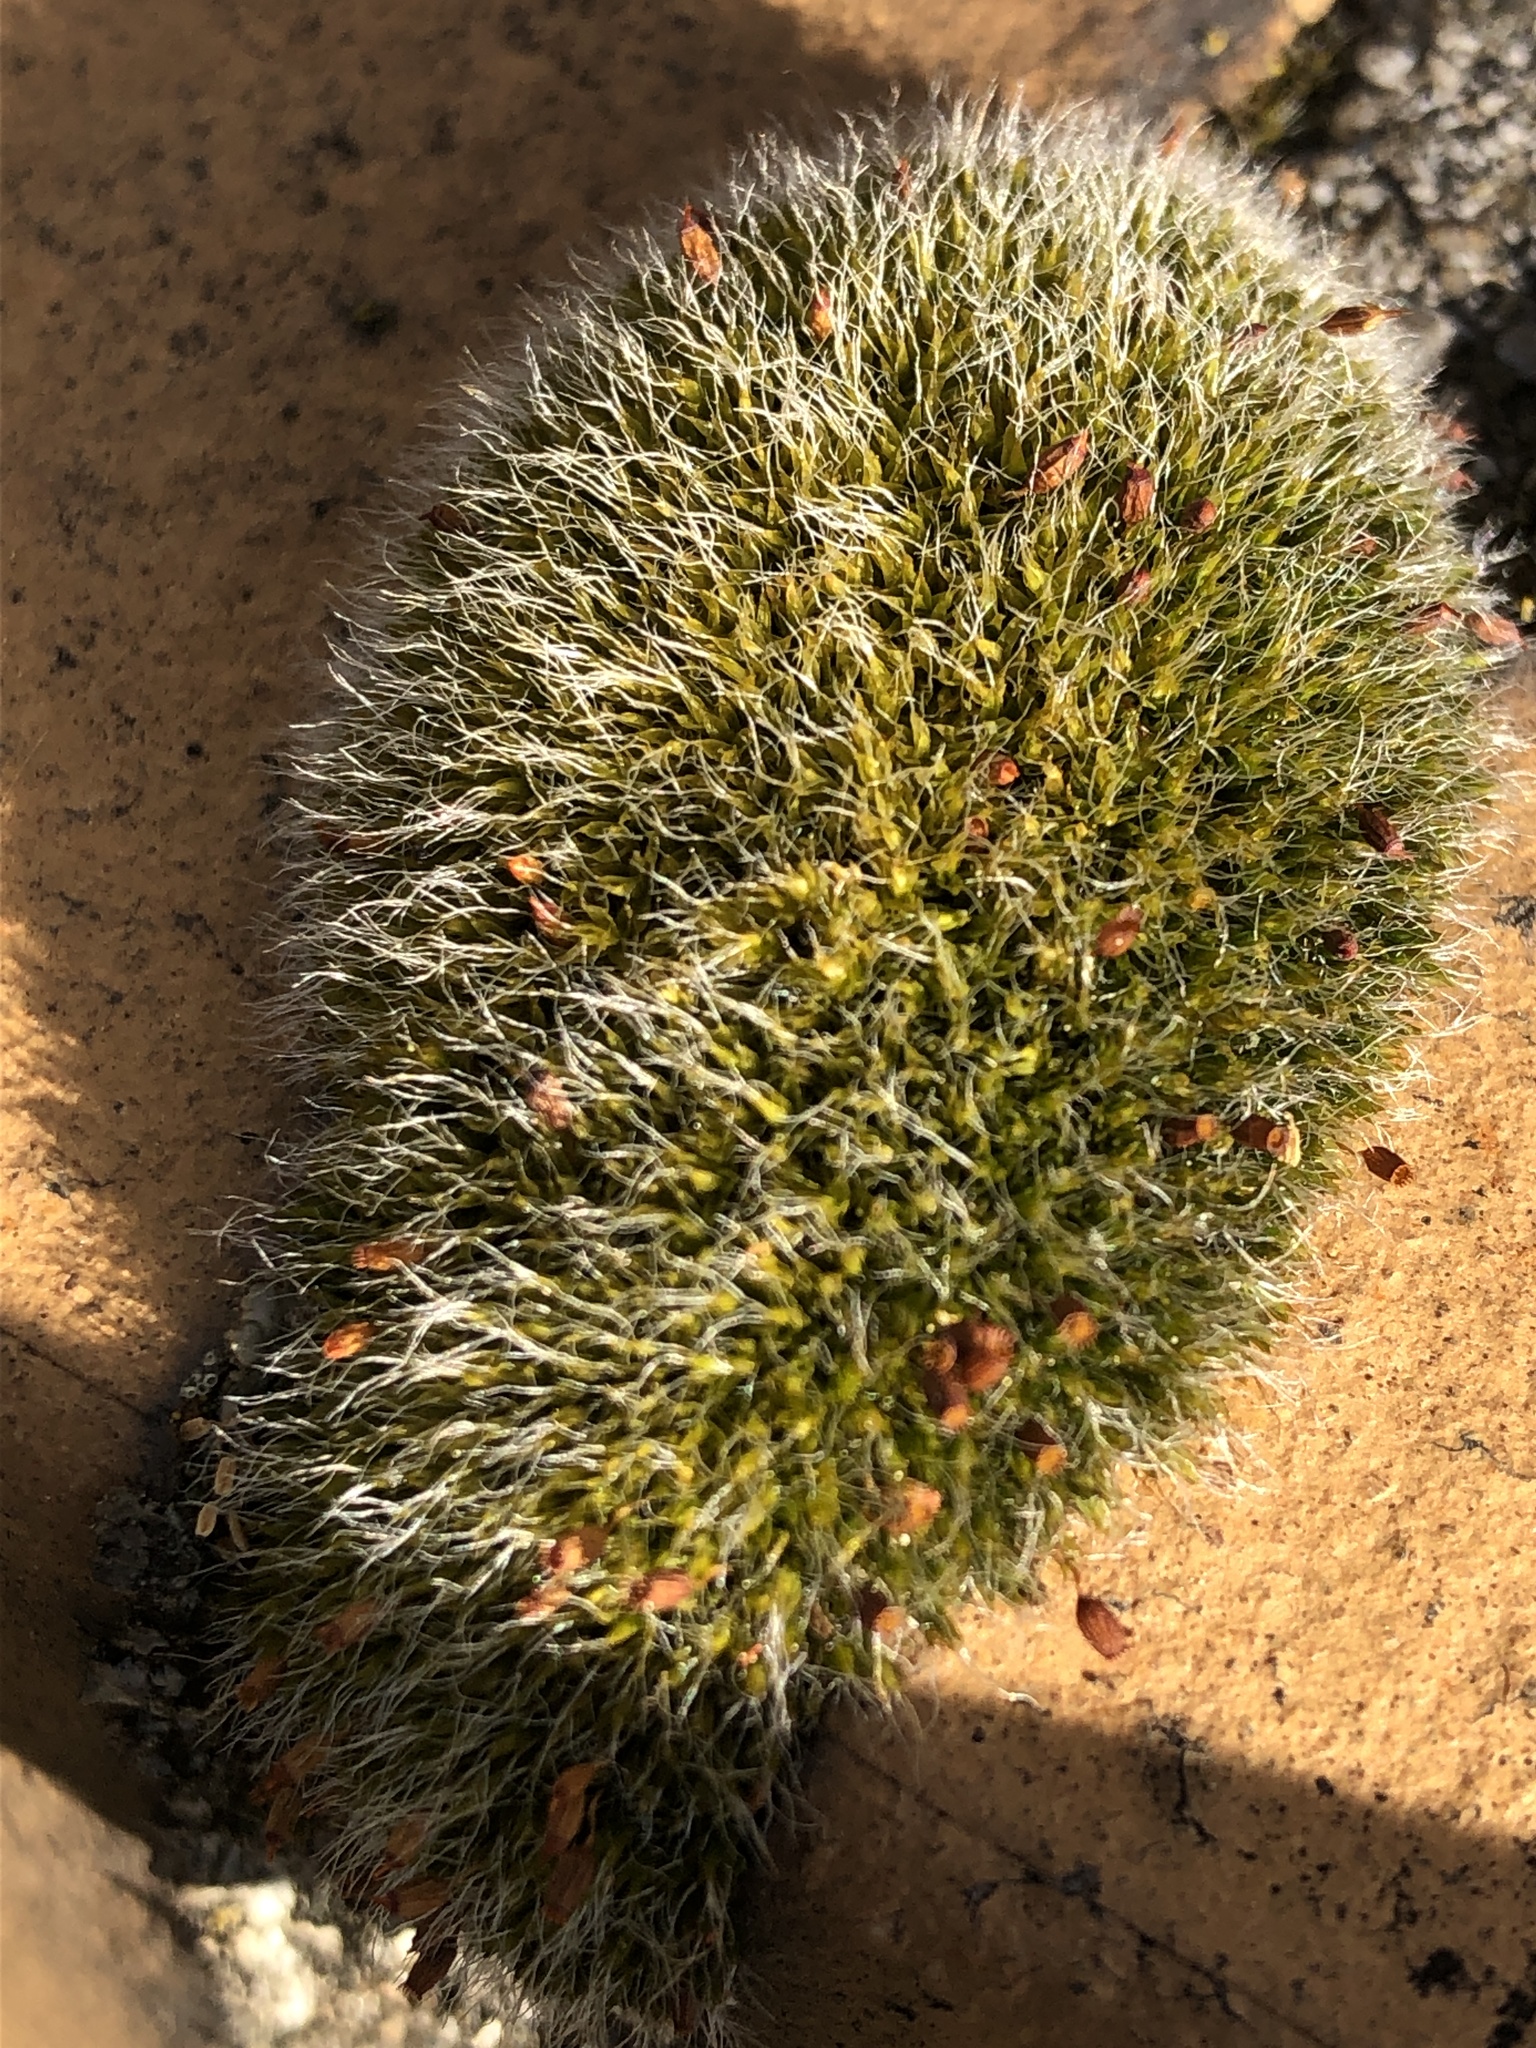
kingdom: Plantae
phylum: Bryophyta
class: Bryopsida
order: Grimmiales
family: Grimmiaceae
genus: Grimmia
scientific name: Grimmia pulvinata
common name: Grey-cushioned grimmia
